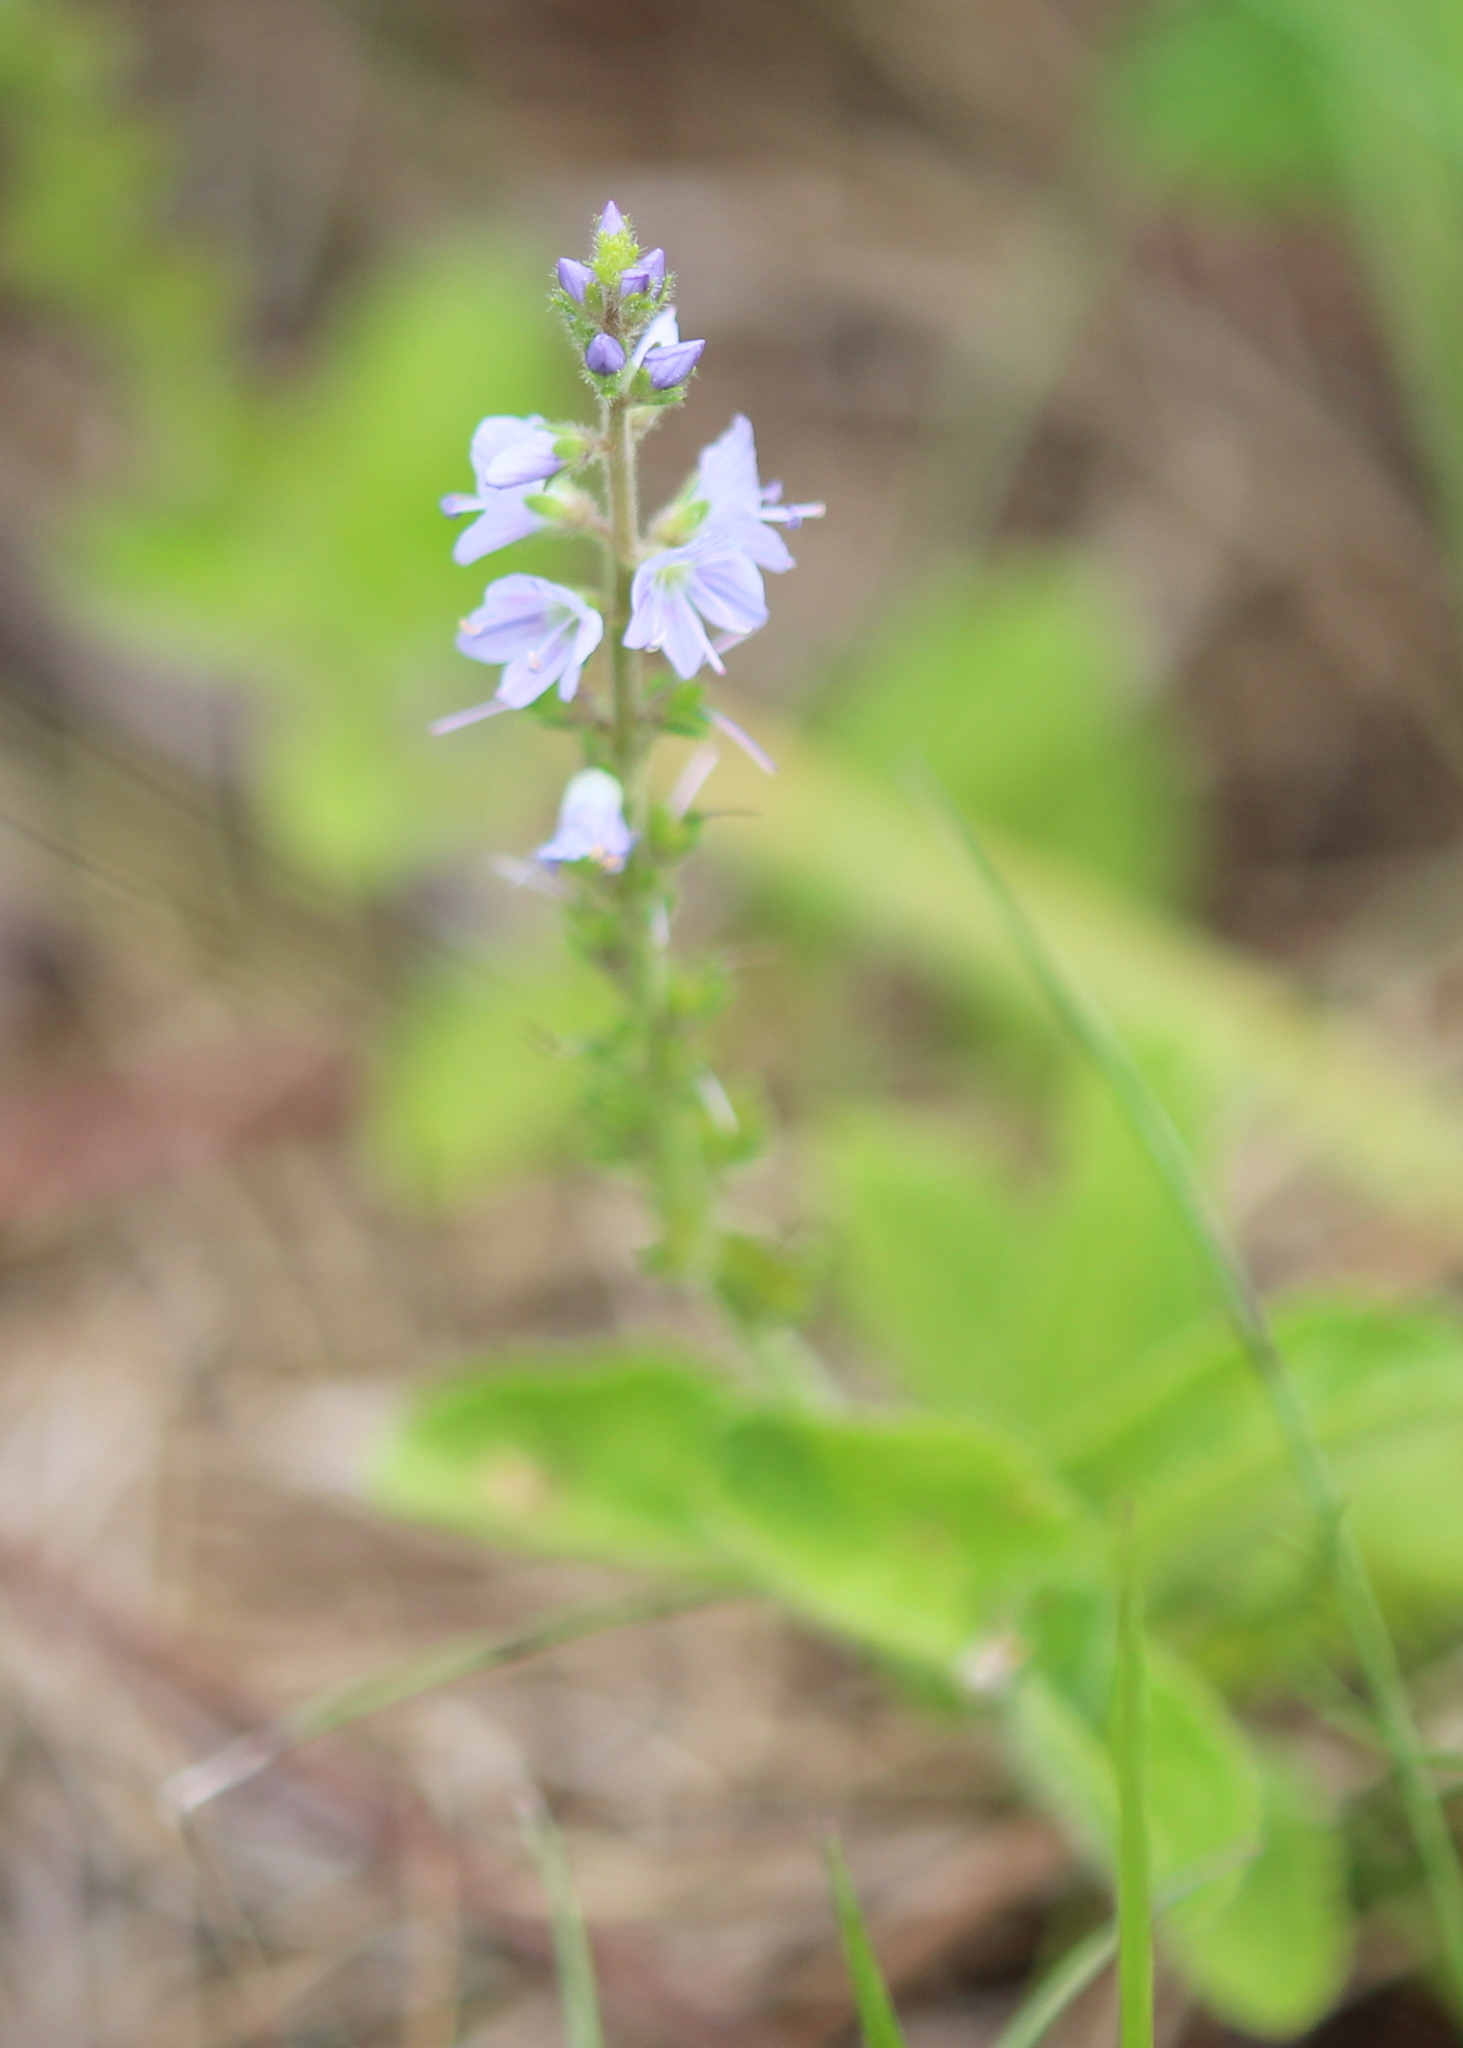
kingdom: Plantae
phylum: Tracheophyta
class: Magnoliopsida
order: Lamiales
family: Plantaginaceae
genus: Veronica
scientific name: Veronica officinalis
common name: Common speedwell
